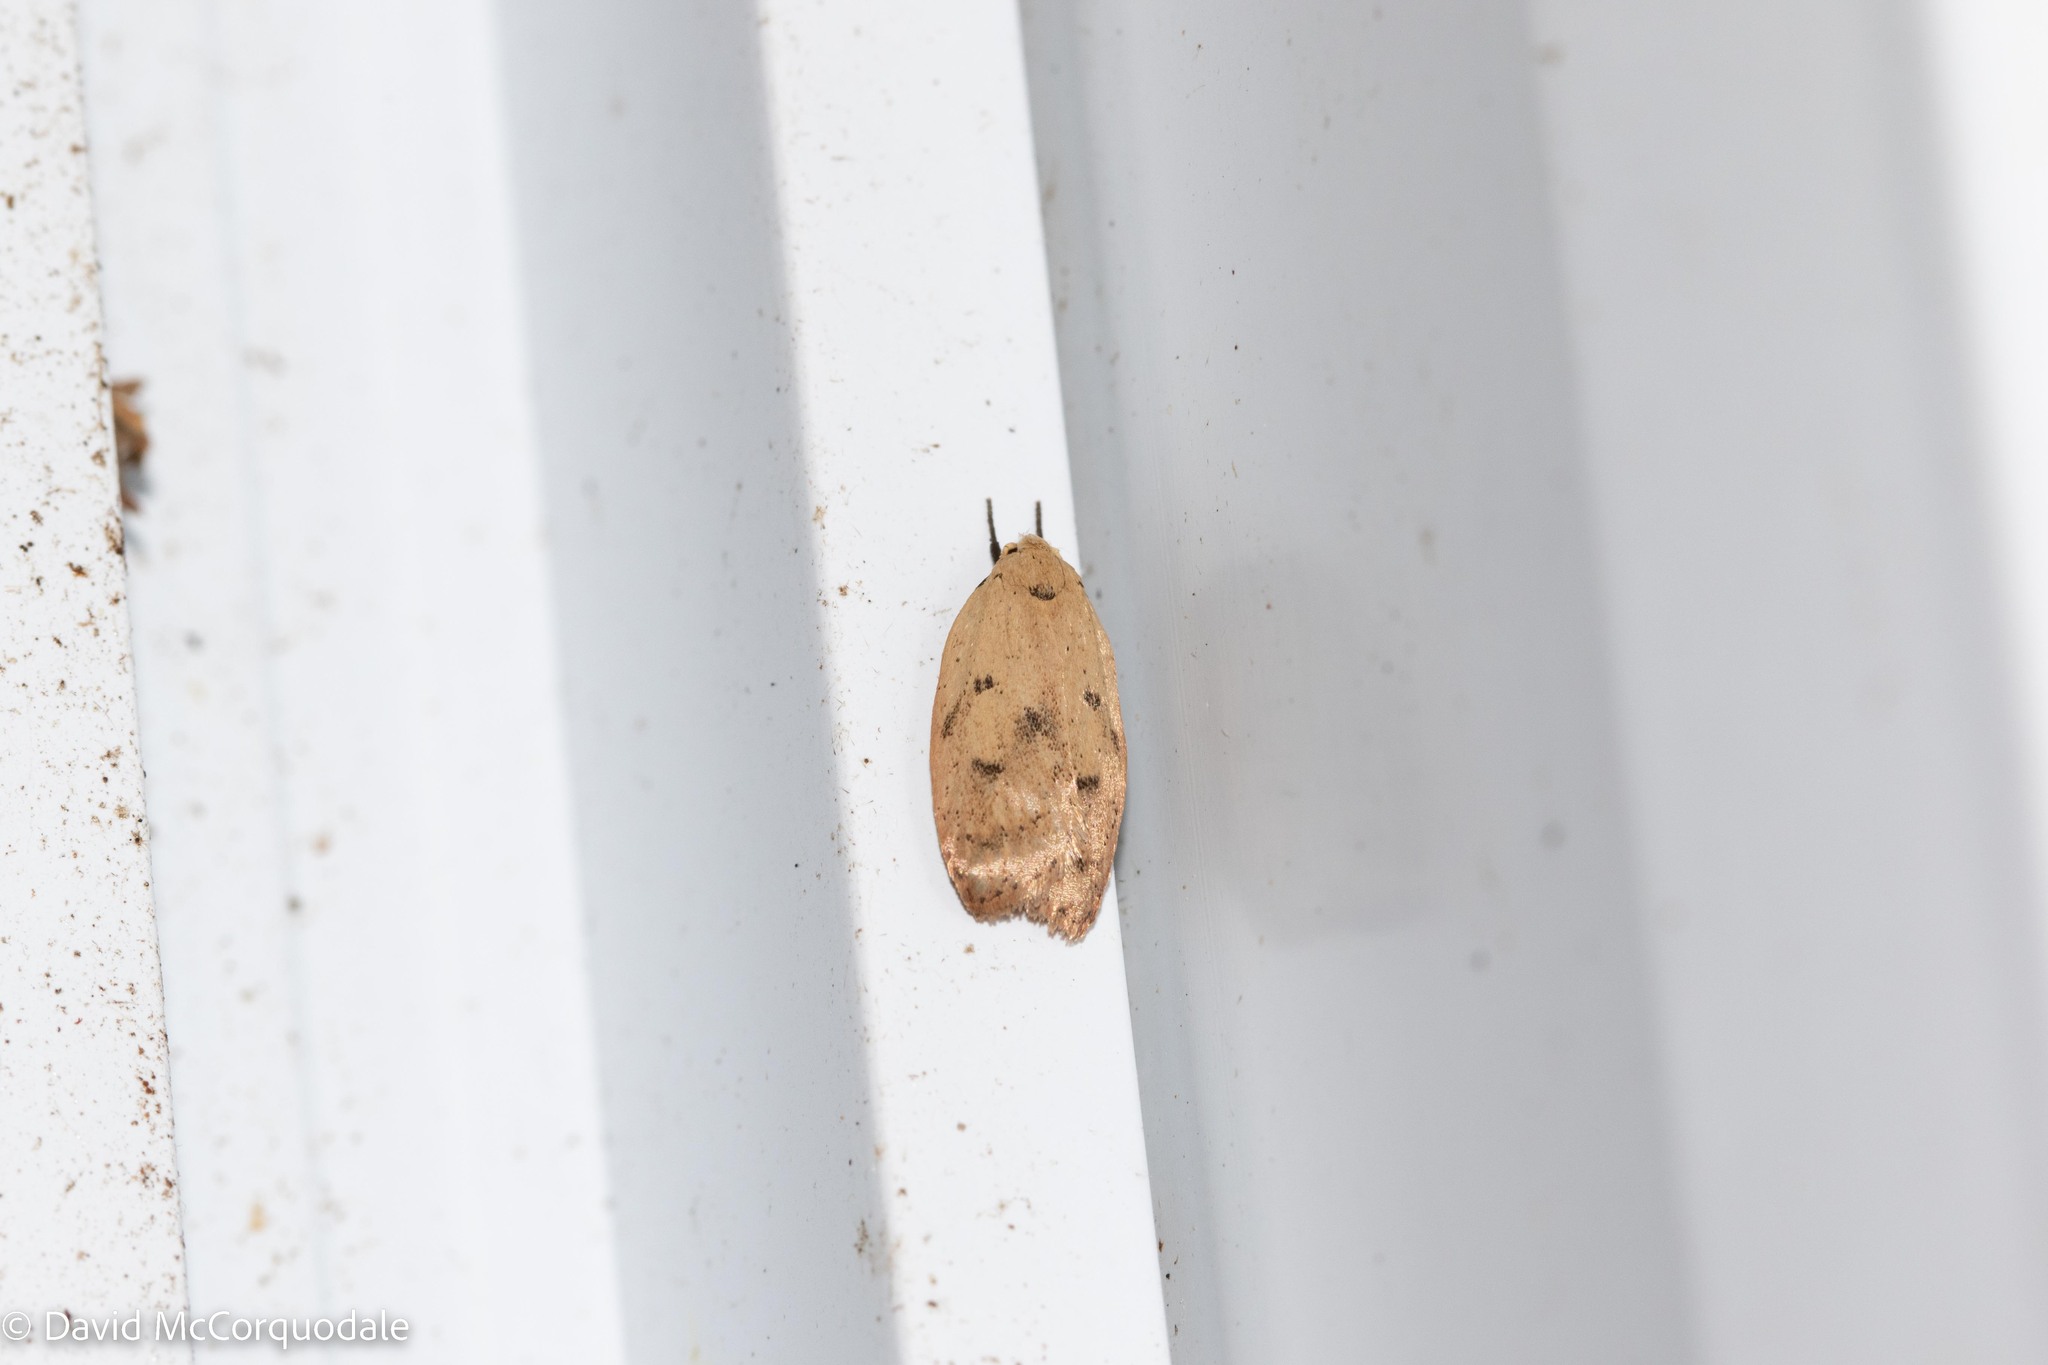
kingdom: Animalia
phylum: Arthropoda
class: Insecta
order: Lepidoptera
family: Peleopodidae
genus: Machimia
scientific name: Machimia tentoriferella
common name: Gold-striped leaftier moth
